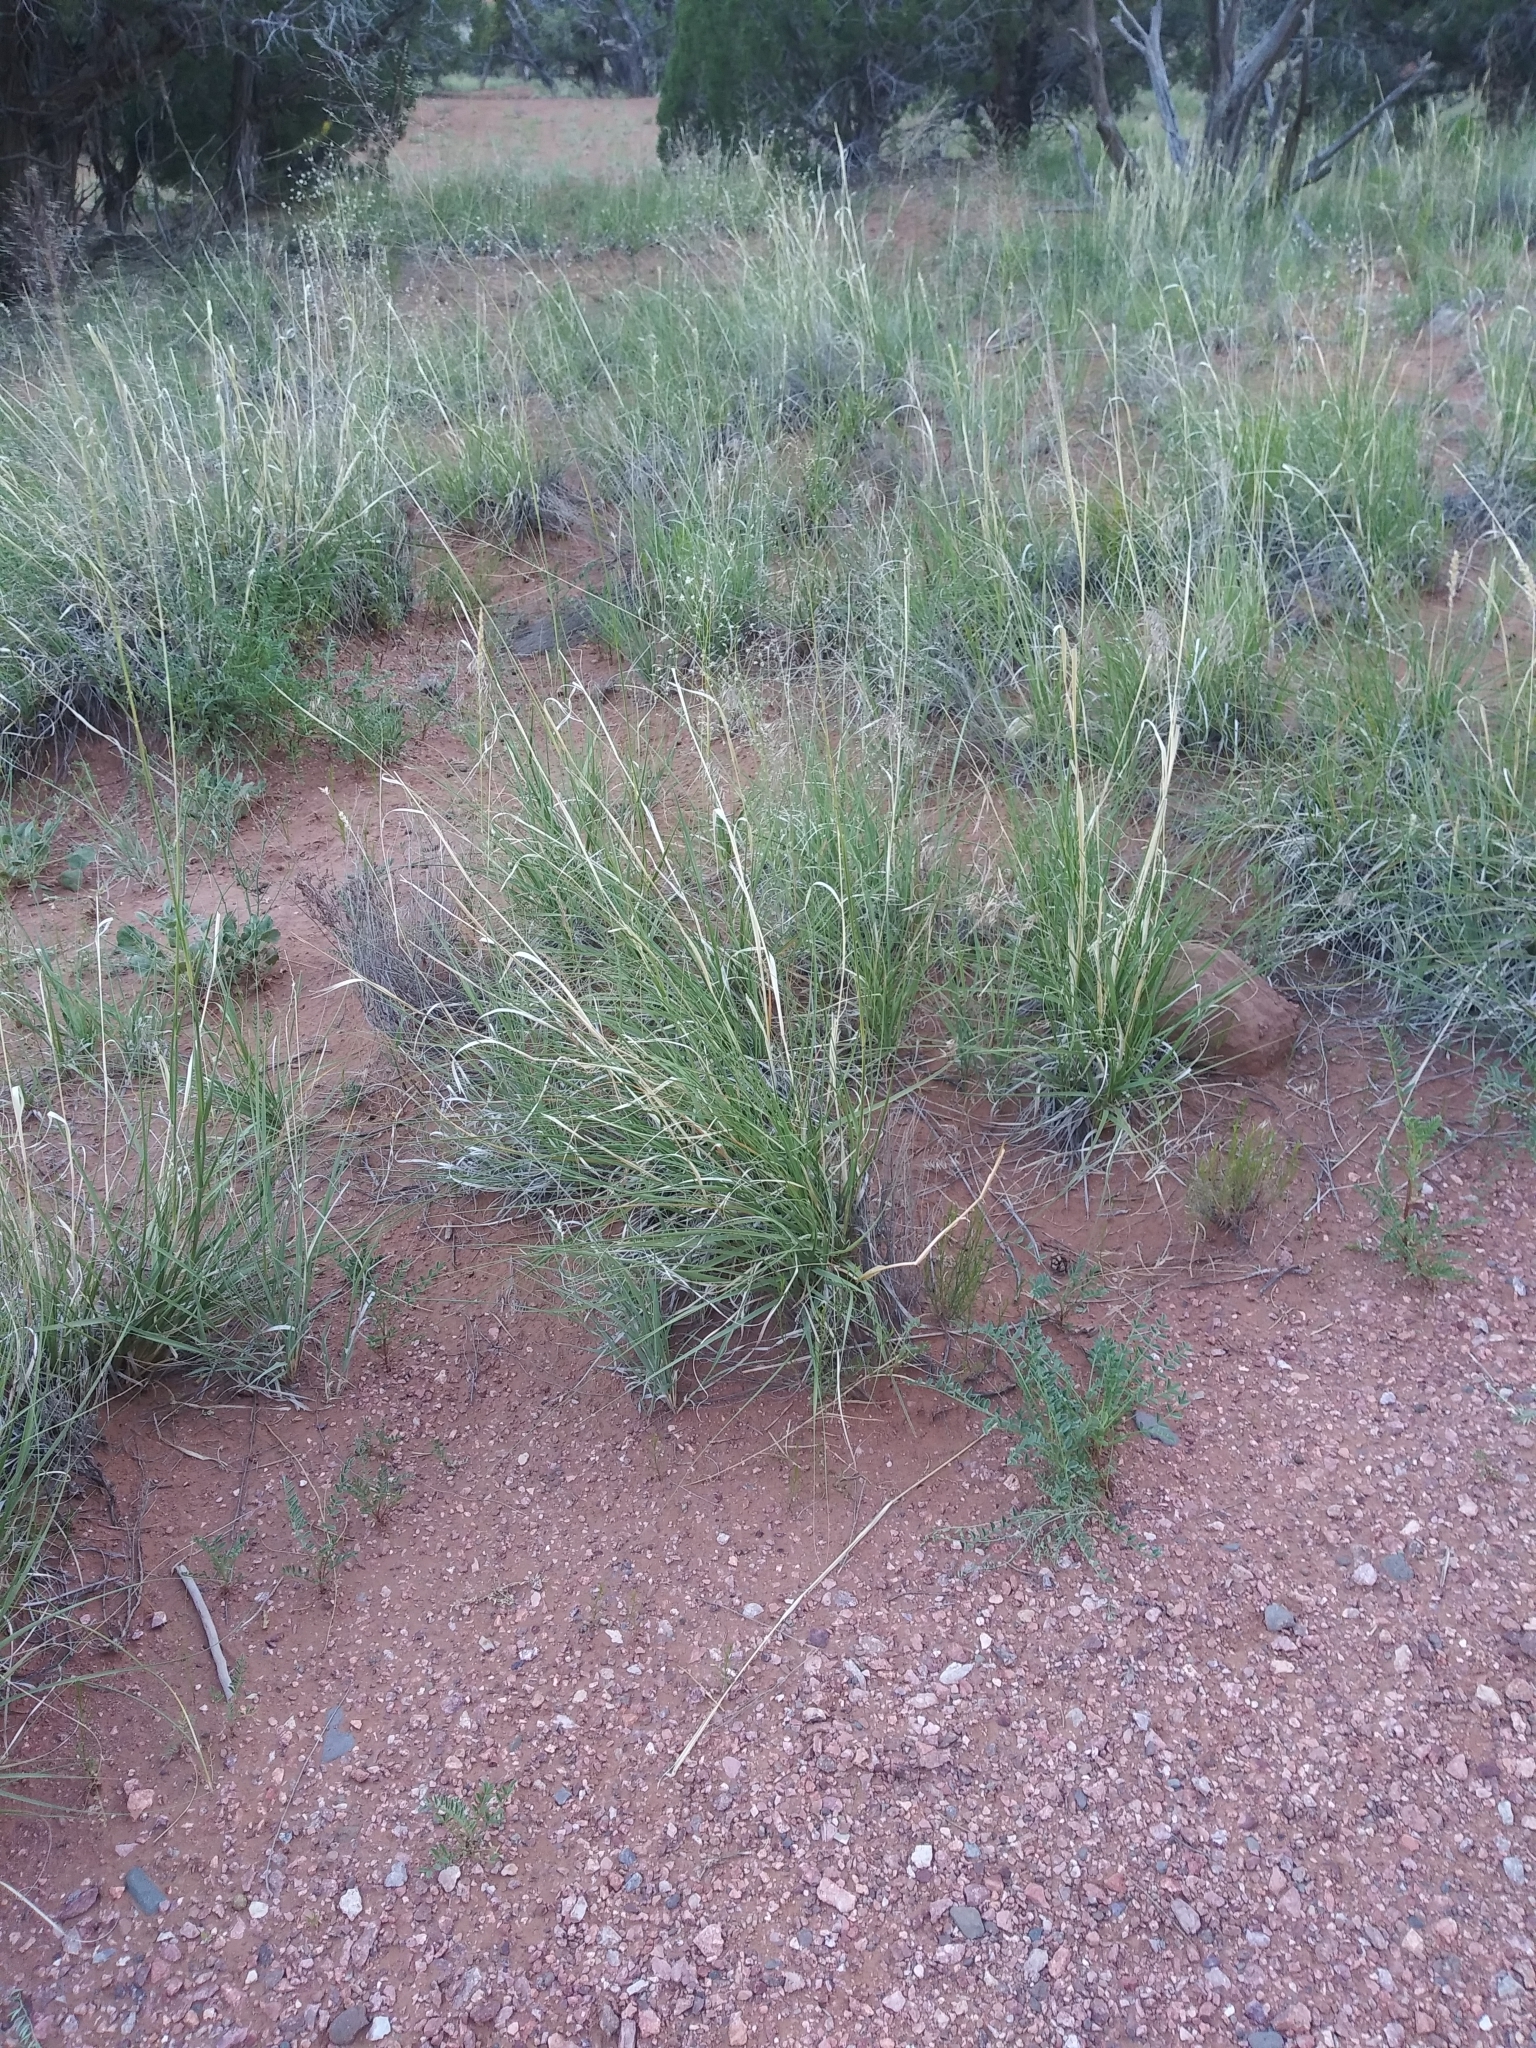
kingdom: Plantae
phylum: Tracheophyta
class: Liliopsida
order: Poales
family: Poaceae
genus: Eriocoma
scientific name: Eriocoma hymenoides
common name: Indian mountain ricegrass
